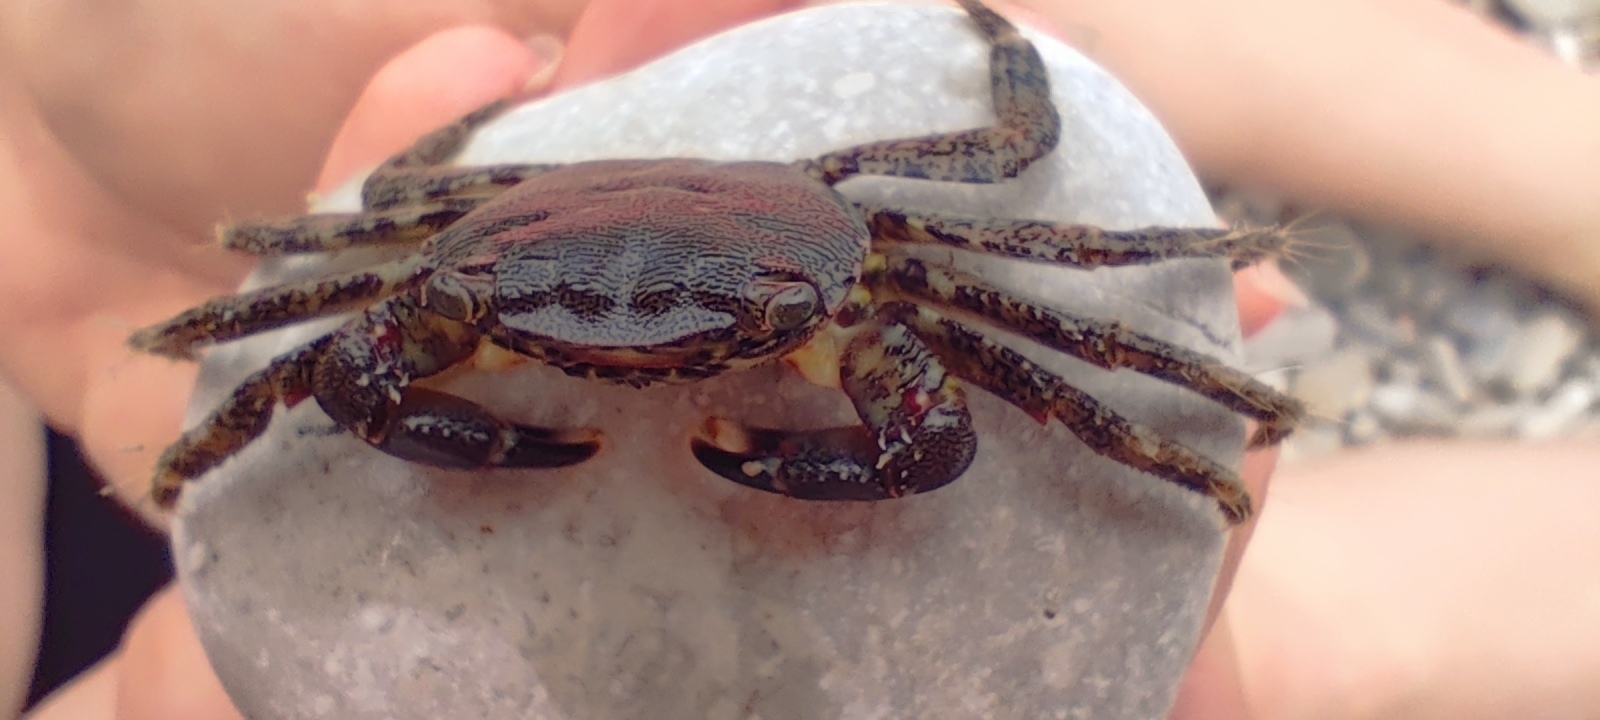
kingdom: Animalia
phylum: Arthropoda
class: Malacostraca
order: Decapoda
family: Grapsidae
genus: Pachygrapsus
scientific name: Pachygrapsus marmoratus
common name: Marbled rock crab
